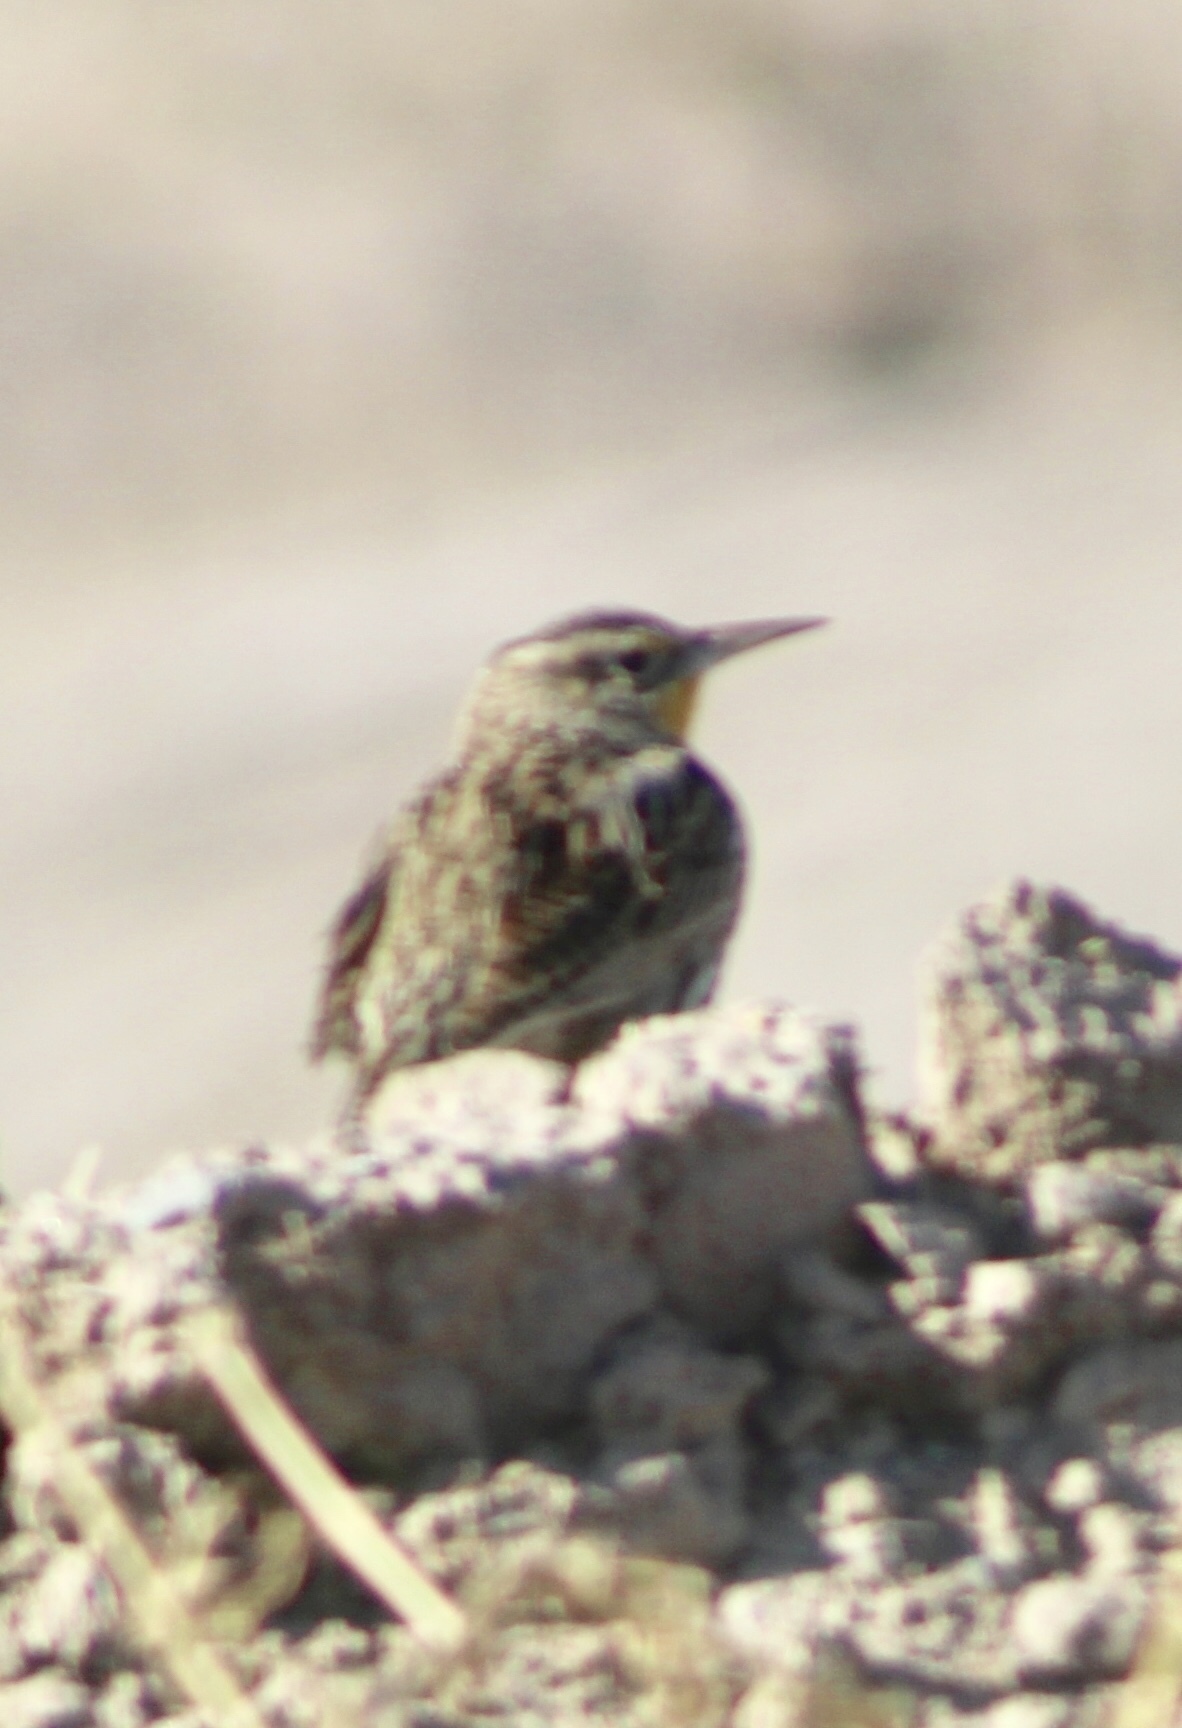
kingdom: Animalia
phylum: Chordata
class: Aves
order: Passeriformes
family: Icteridae
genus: Sturnella
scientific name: Sturnella neglecta
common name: Western meadowlark
